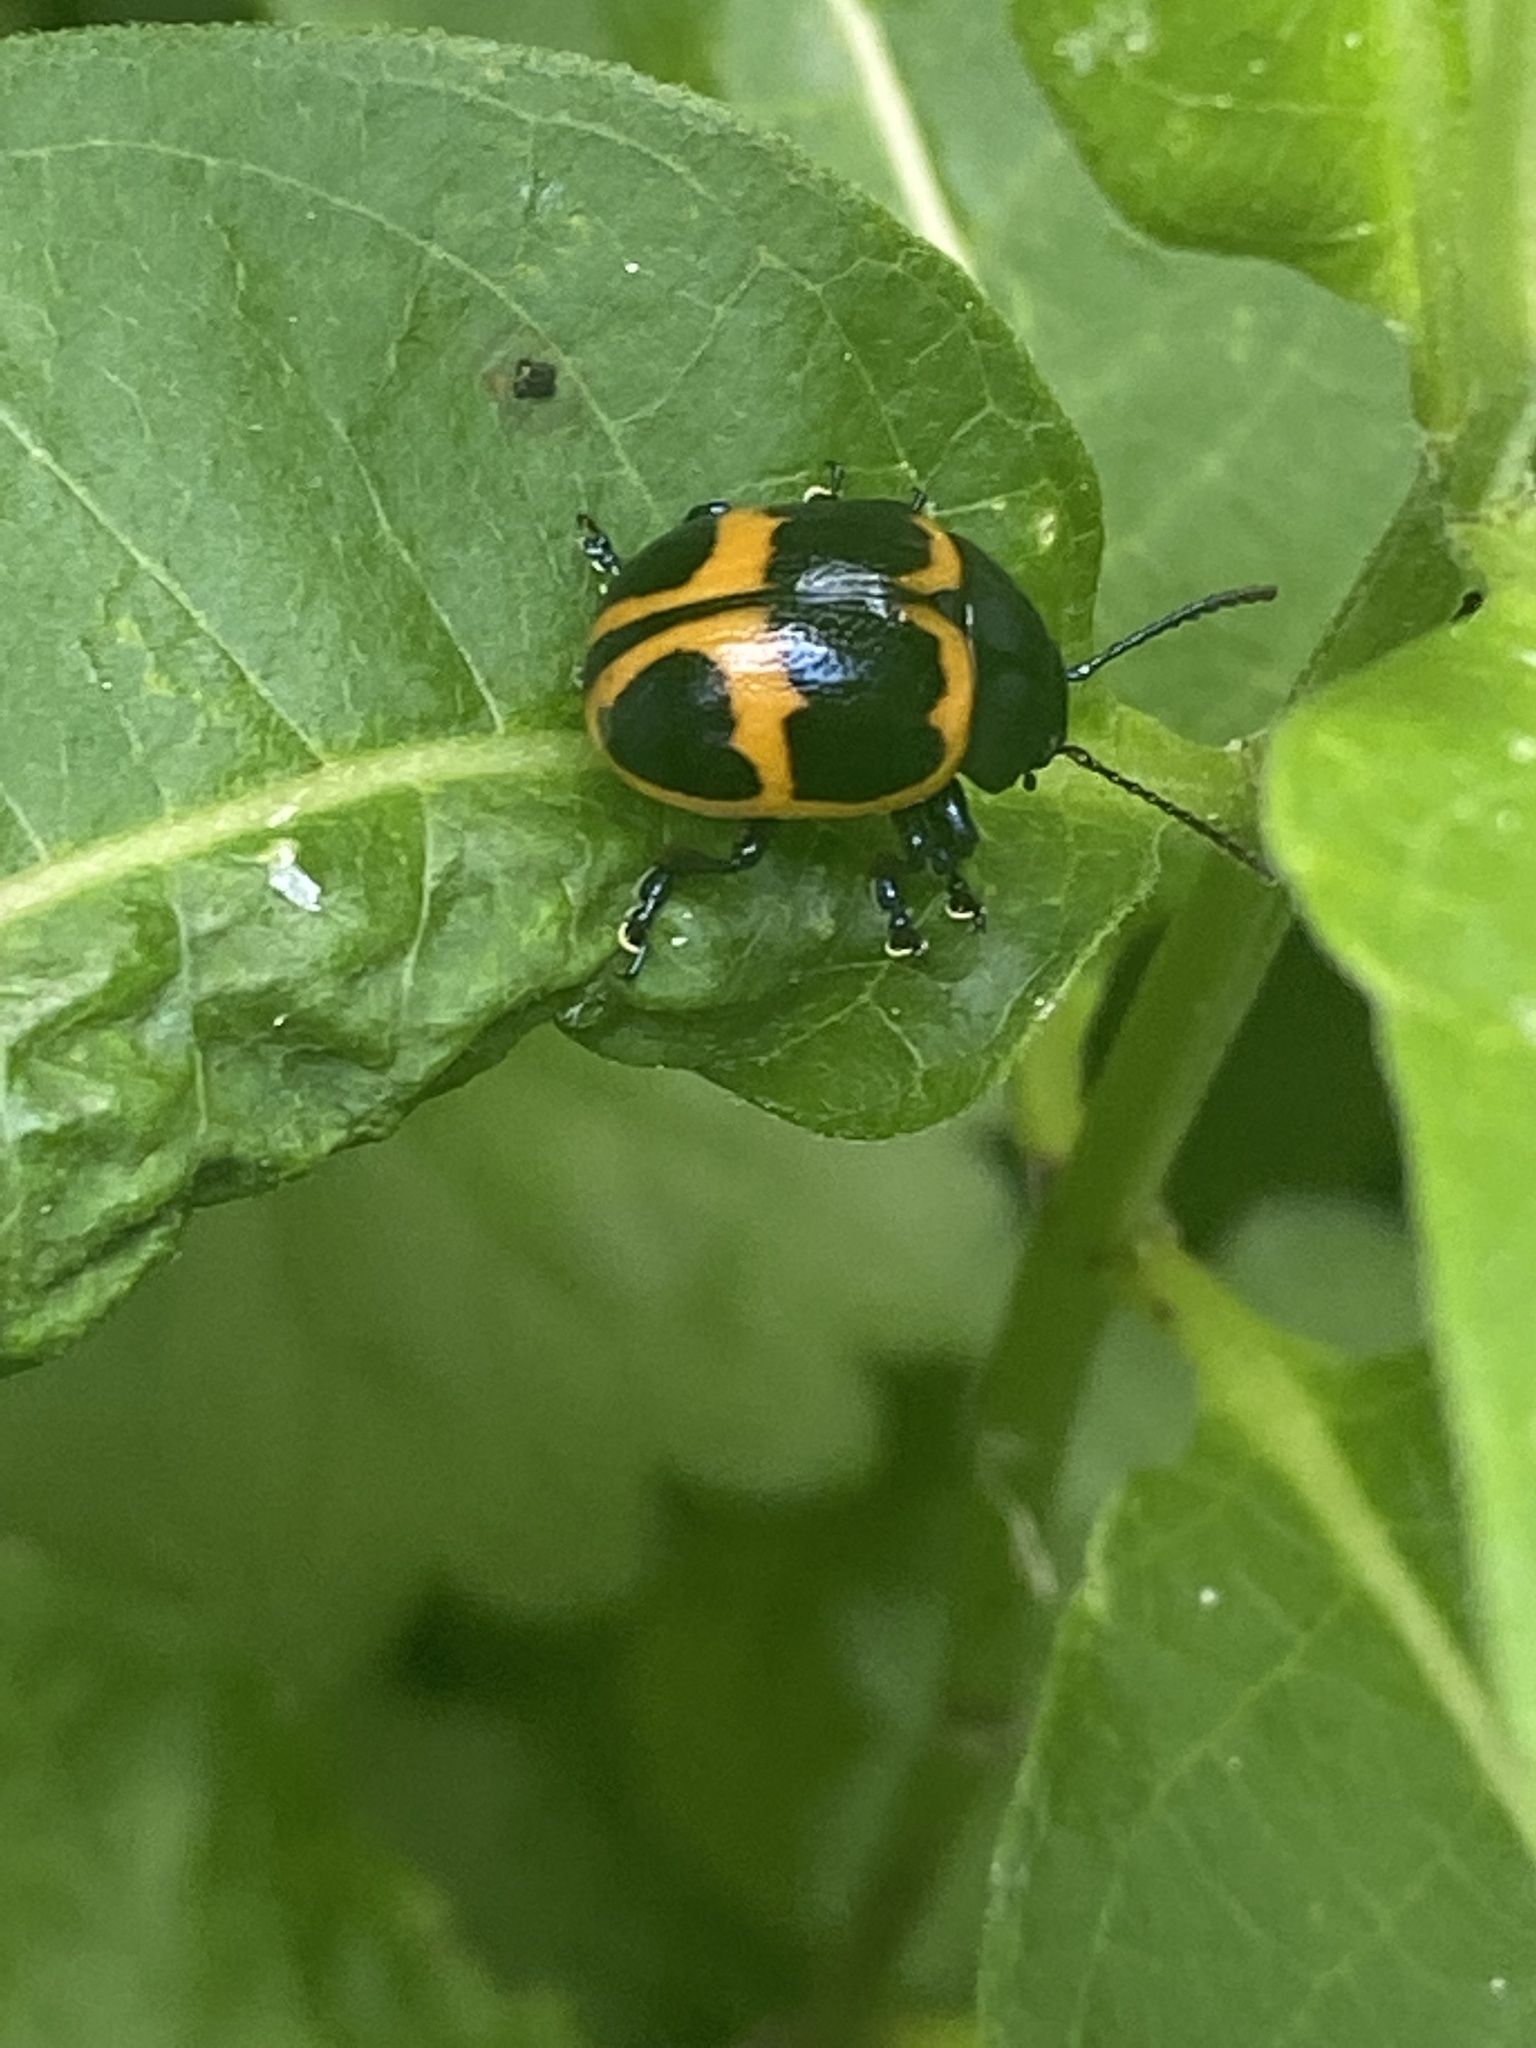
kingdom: Animalia
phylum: Arthropoda
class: Insecta
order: Coleoptera
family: Chrysomelidae
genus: Labidomera
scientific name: Labidomera clivicollis
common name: Swamp milkweed leaf beetle
